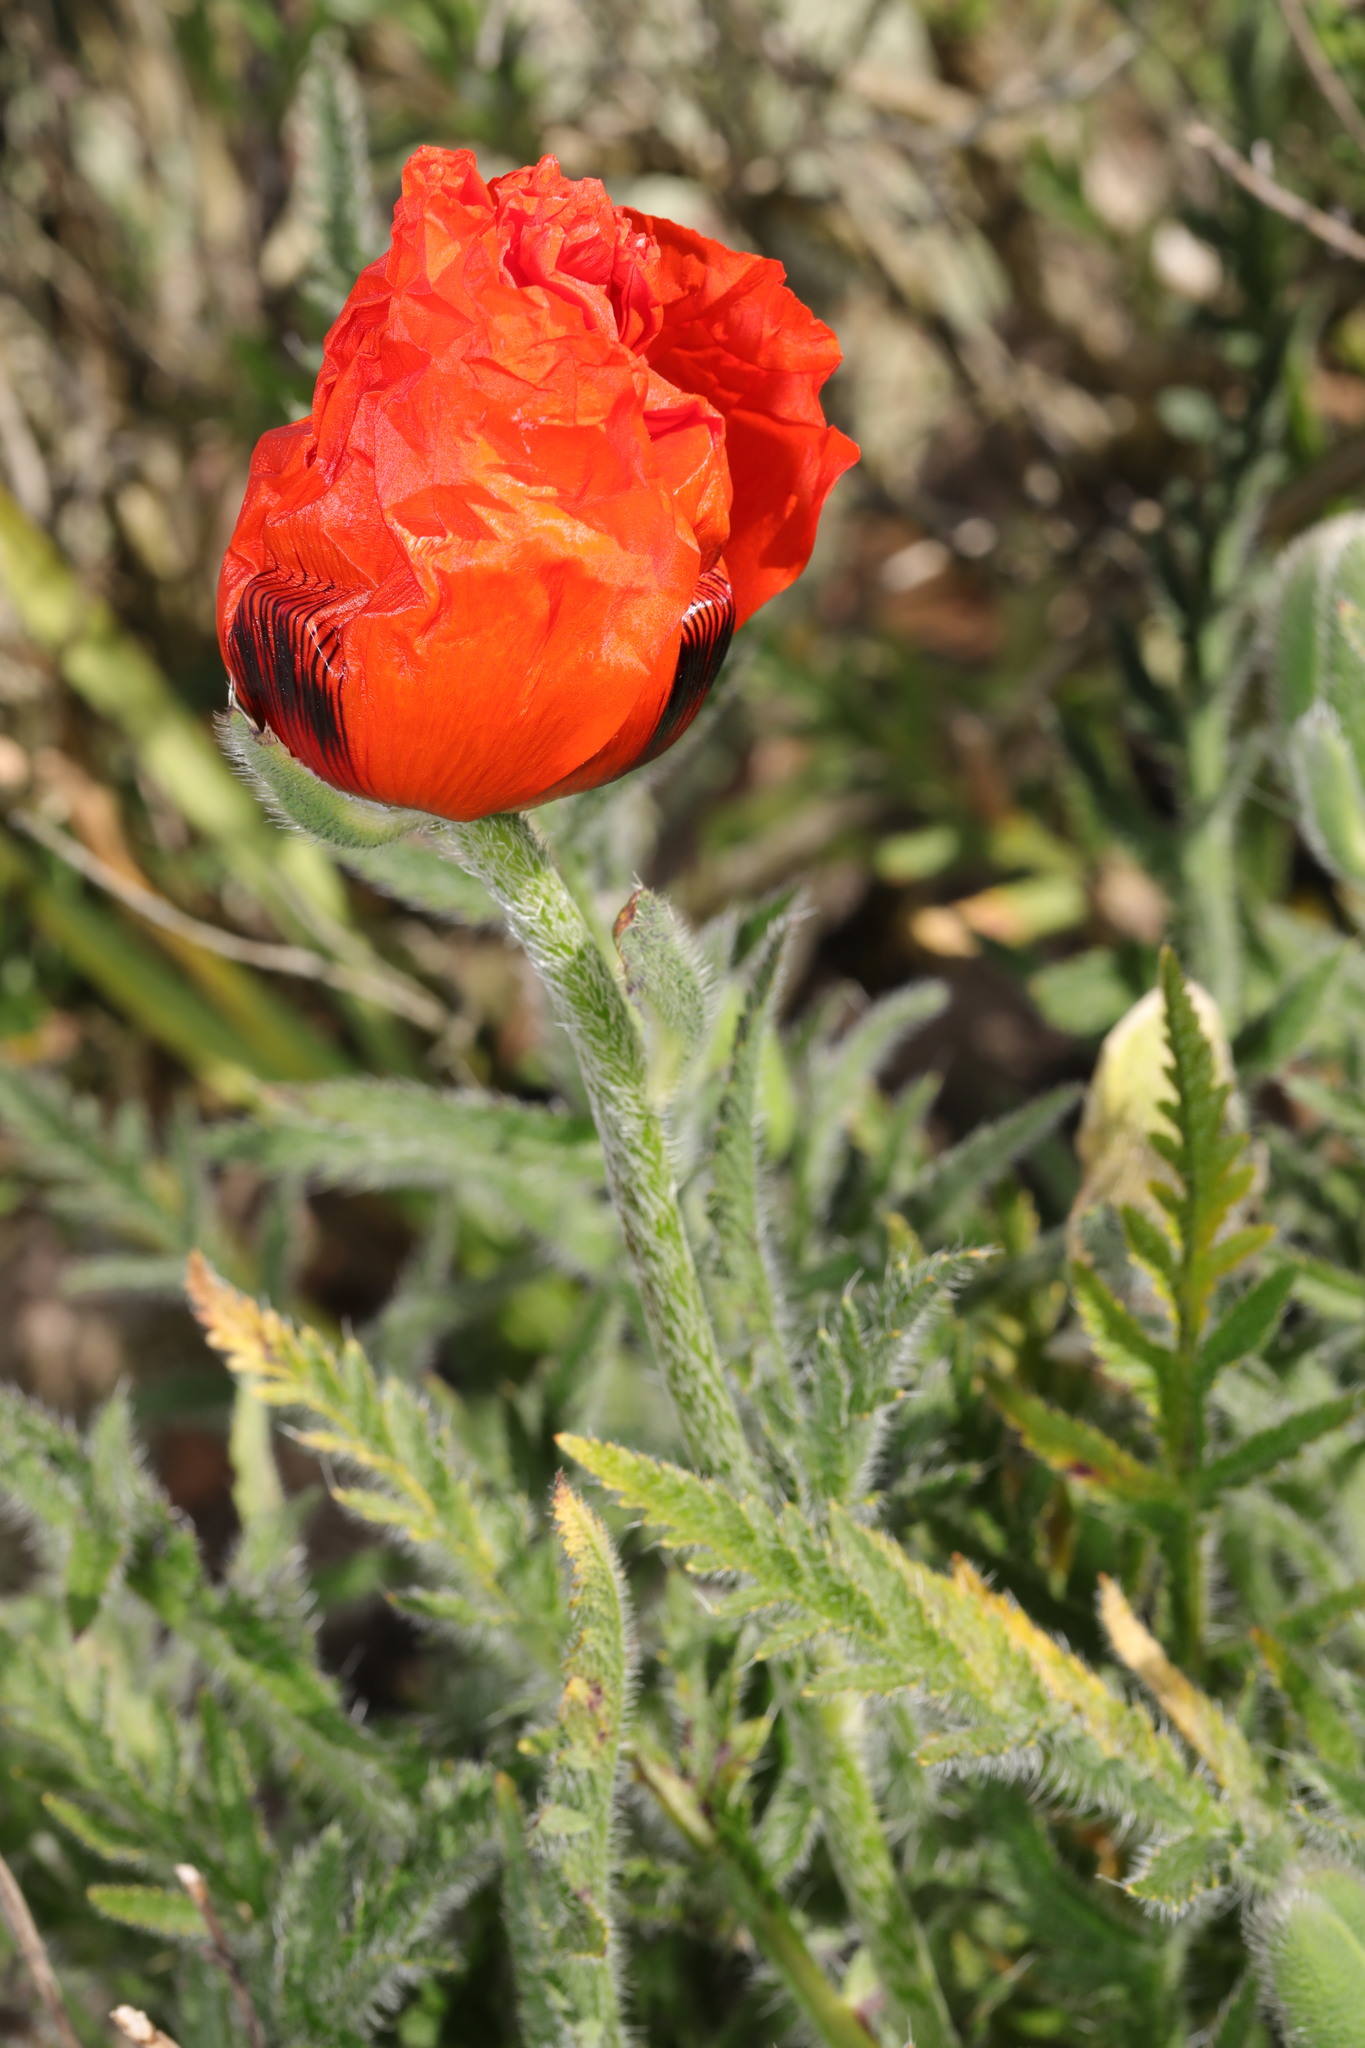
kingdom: Plantae
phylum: Tracheophyta
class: Magnoliopsida
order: Ranunculales
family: Papaveraceae
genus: Papaver
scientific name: Papaver orientale
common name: Oriental poppy
